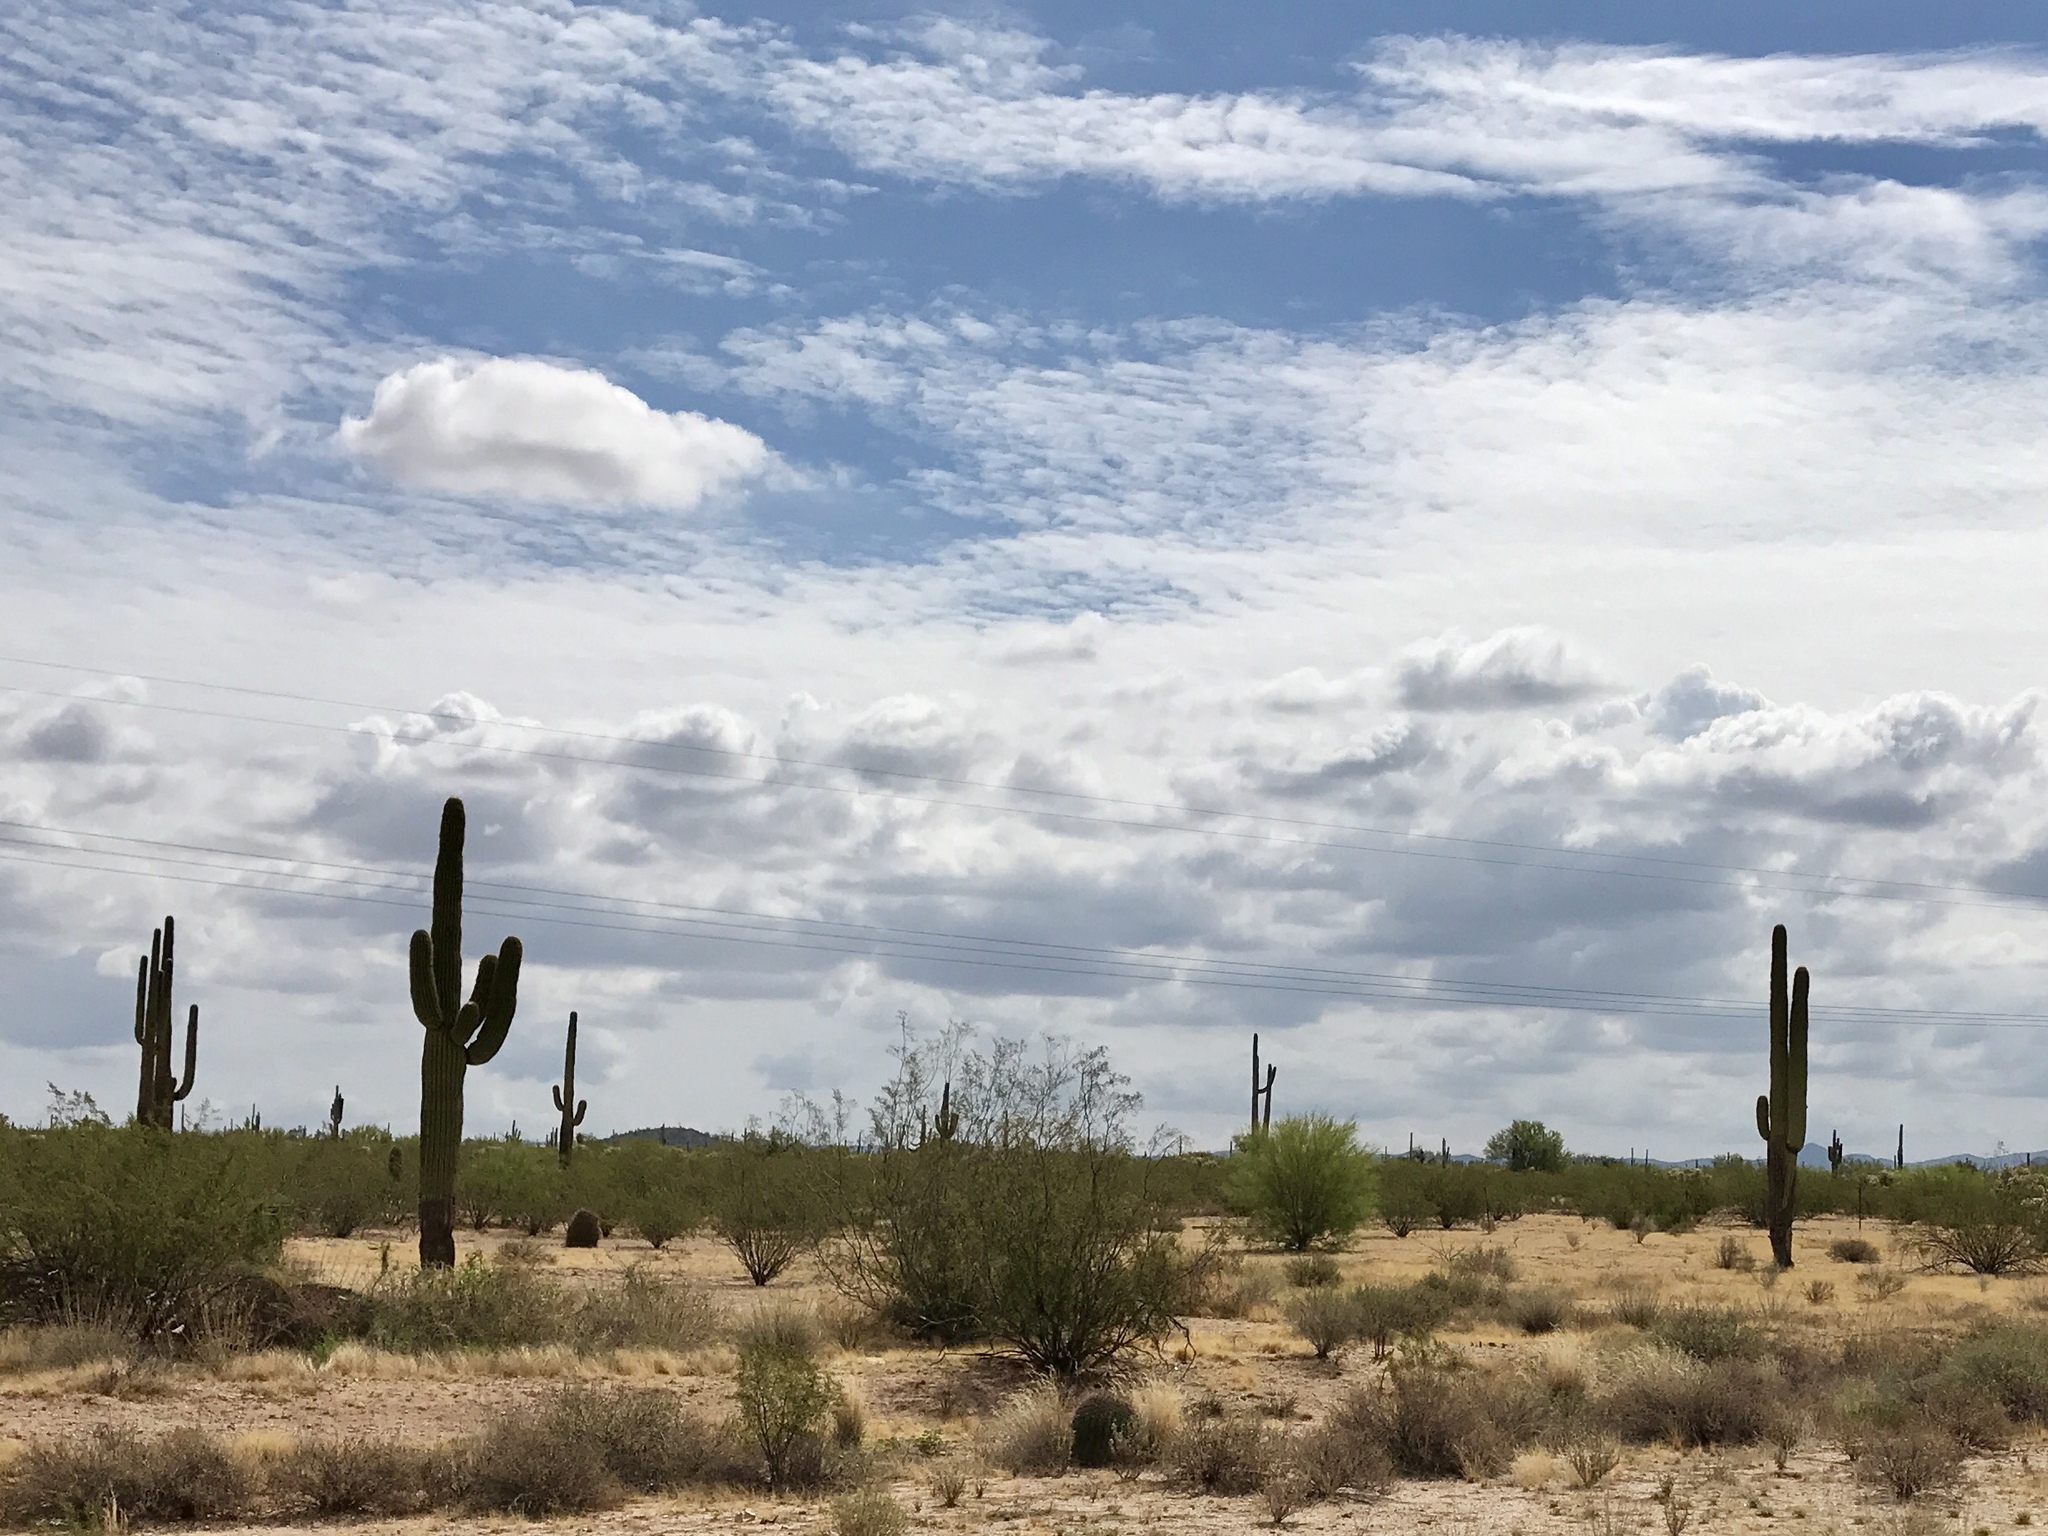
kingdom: Plantae
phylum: Tracheophyta
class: Magnoliopsida
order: Caryophyllales
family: Cactaceae
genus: Carnegiea
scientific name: Carnegiea gigantea
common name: Saguaro
